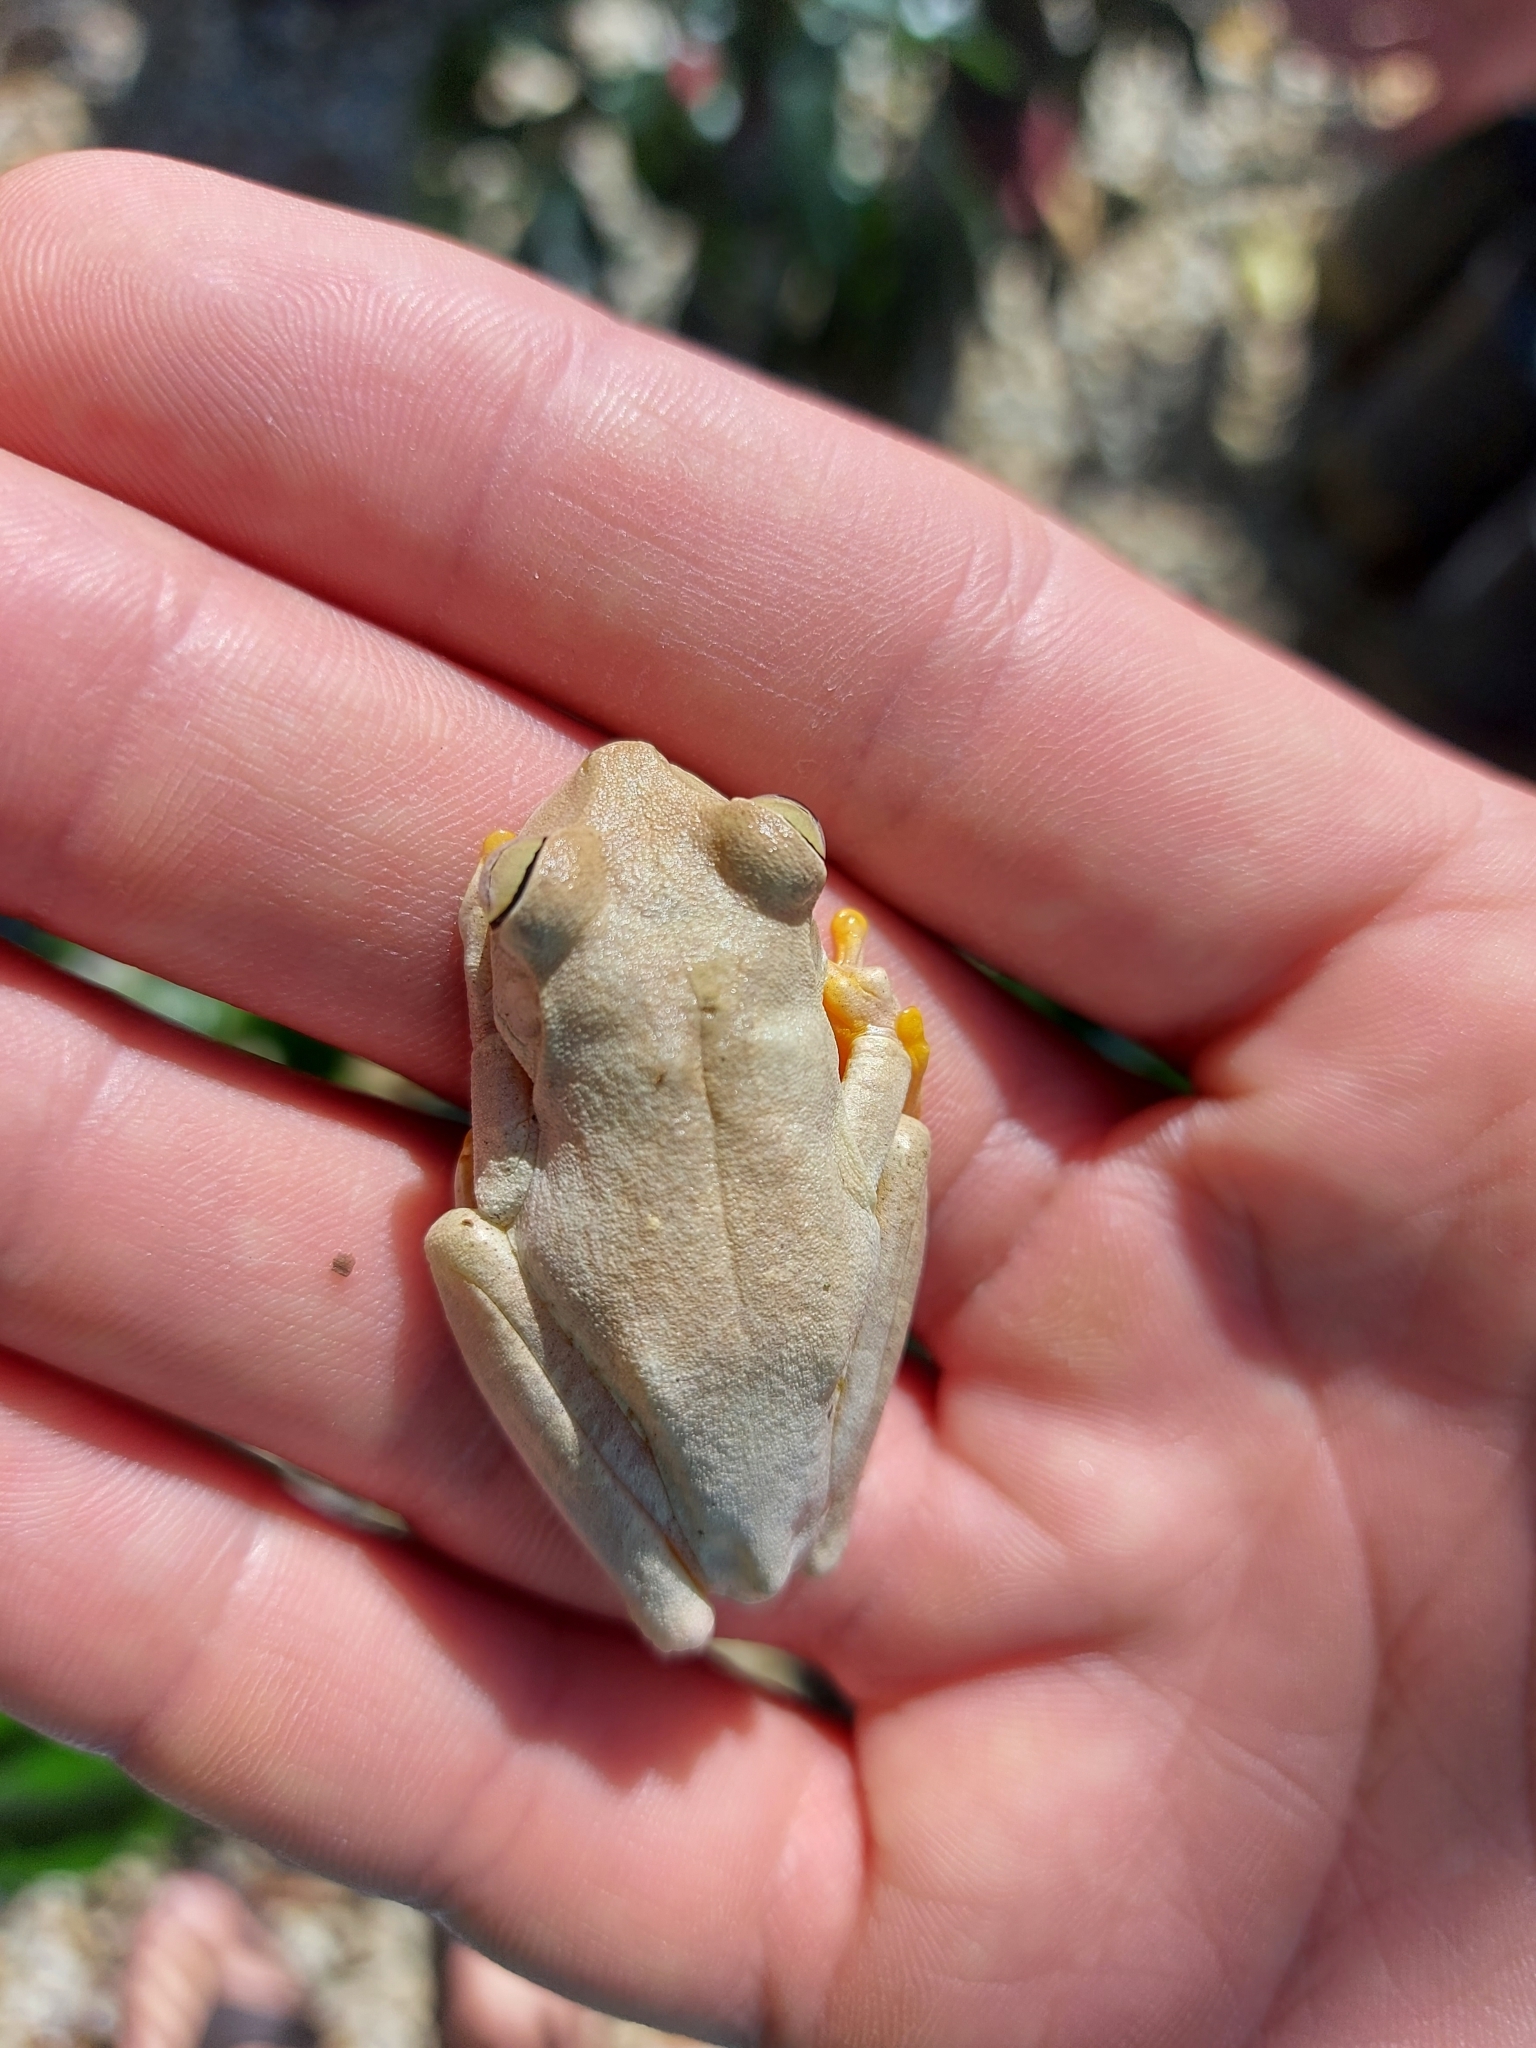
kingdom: Animalia
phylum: Chordata
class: Amphibia
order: Anura
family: Hylidae
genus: Boana
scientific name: Boana crepitans
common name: Emerald-eyed treefrog
